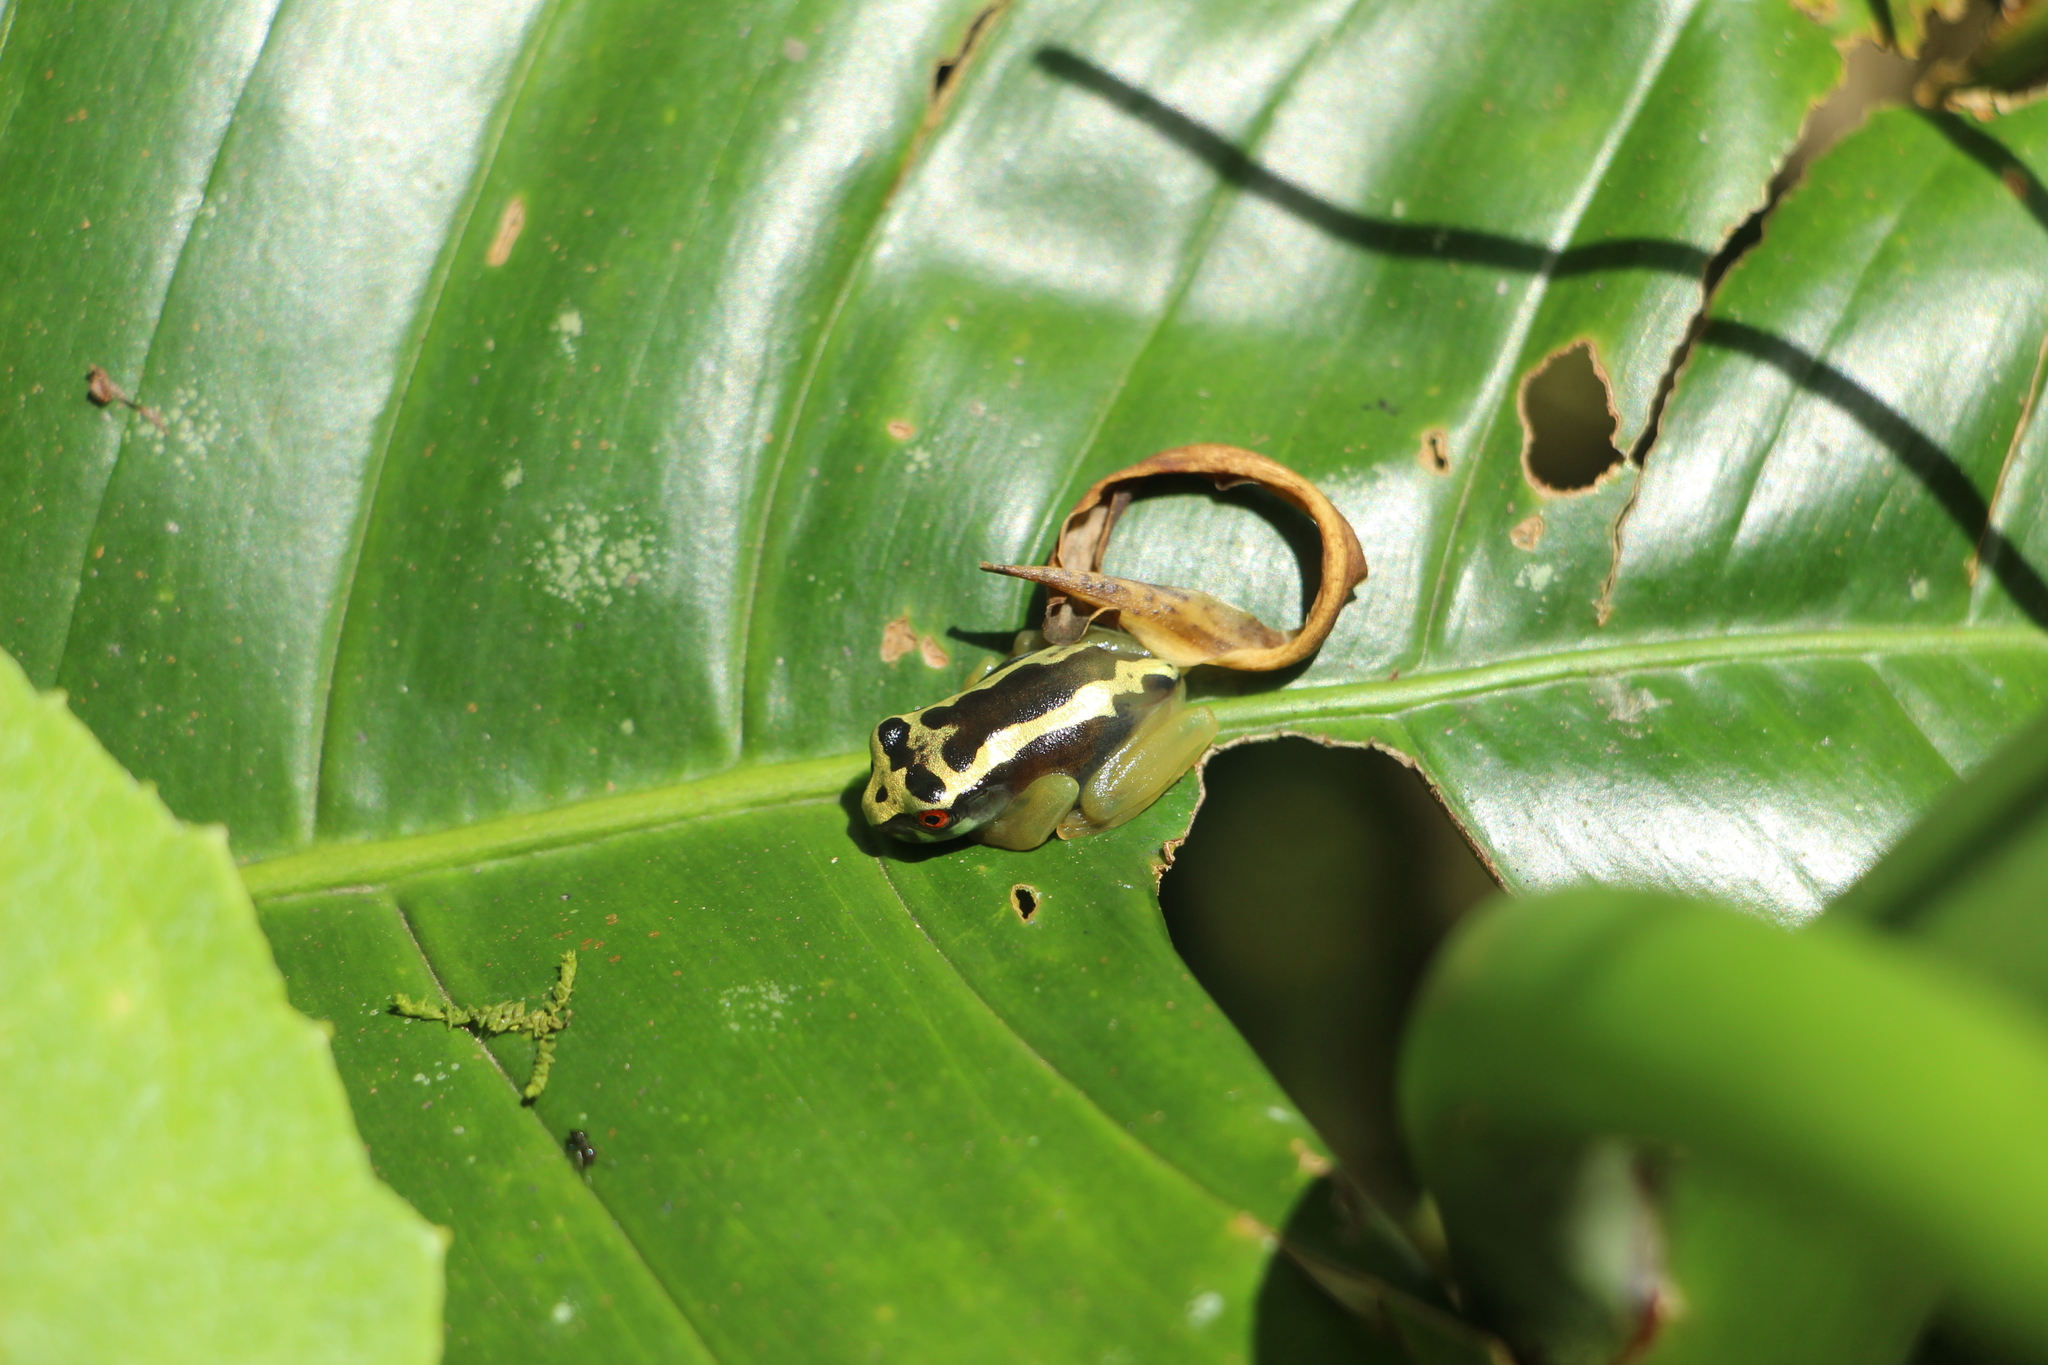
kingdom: Animalia
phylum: Chordata
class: Amphibia
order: Anura
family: Hylidae
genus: Osteocephalus
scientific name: Osteocephalus carri
